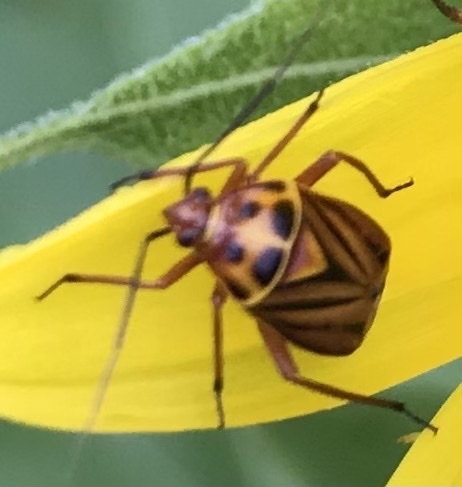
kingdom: Animalia
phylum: Arthropoda
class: Insecta
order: Hemiptera
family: Miridae
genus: Calocoris
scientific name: Calocoris barberi
